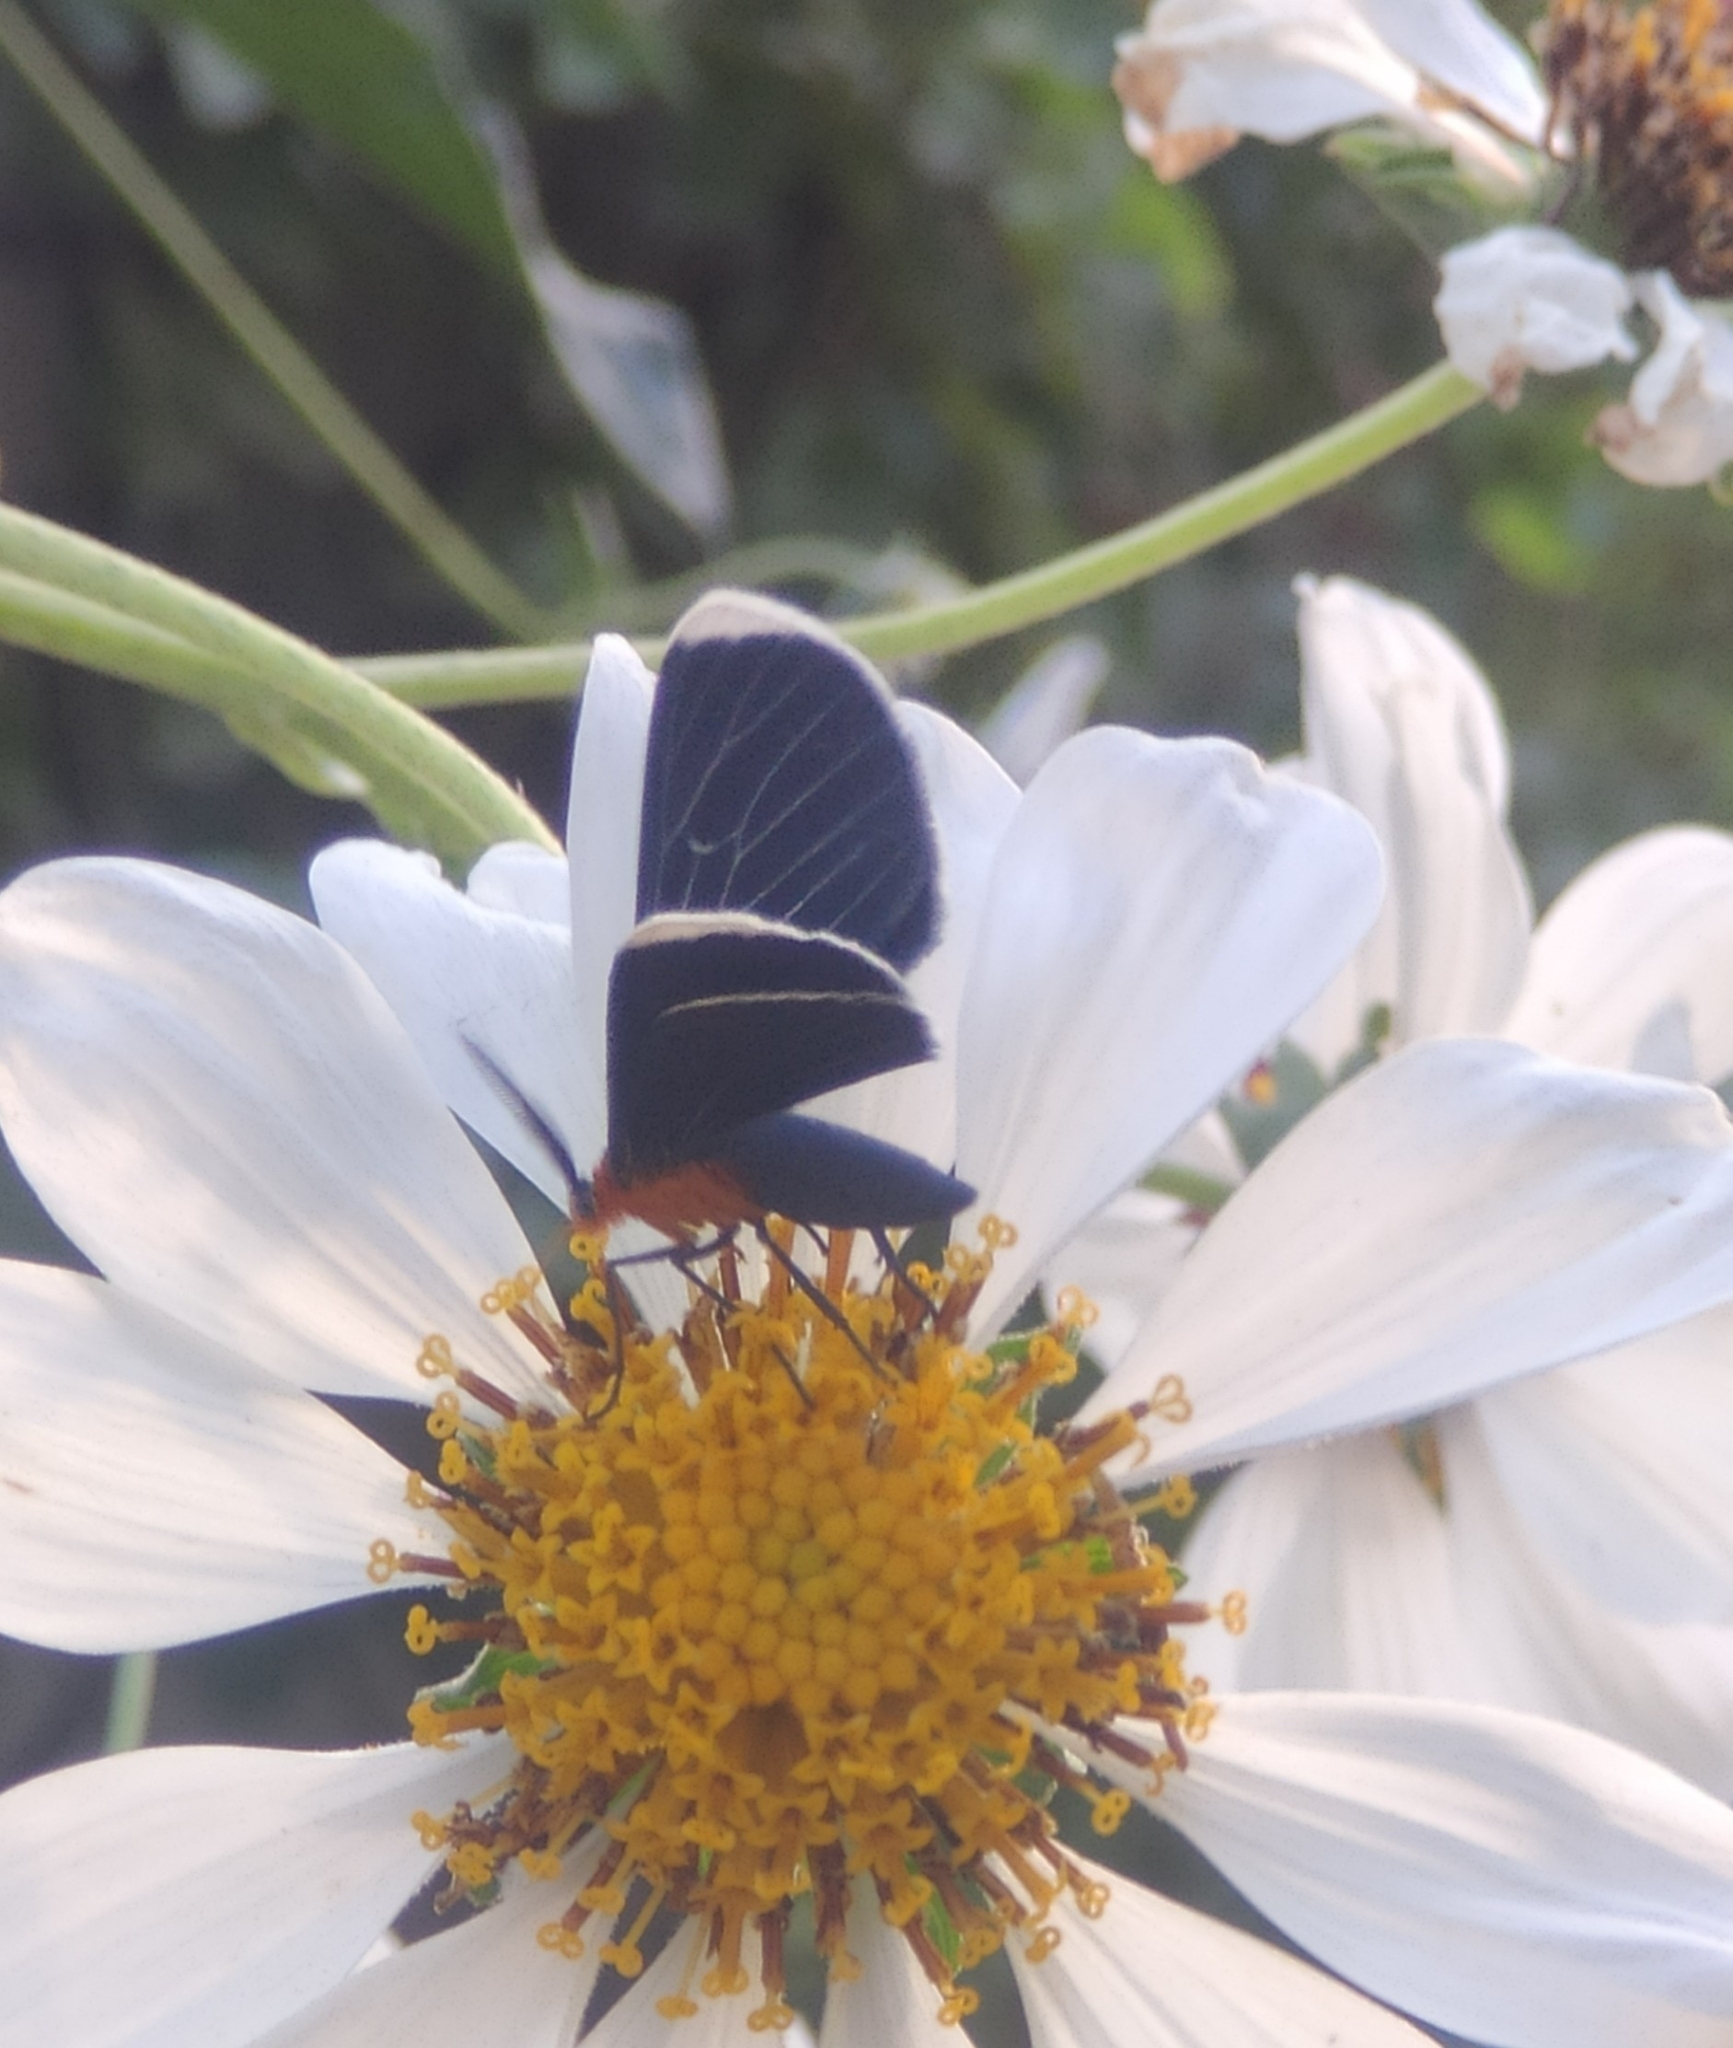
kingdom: Animalia
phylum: Arthropoda
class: Insecta
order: Lepidoptera
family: Geometridae
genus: Melanchroia
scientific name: Melanchroia chephise
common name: White-tipped black
